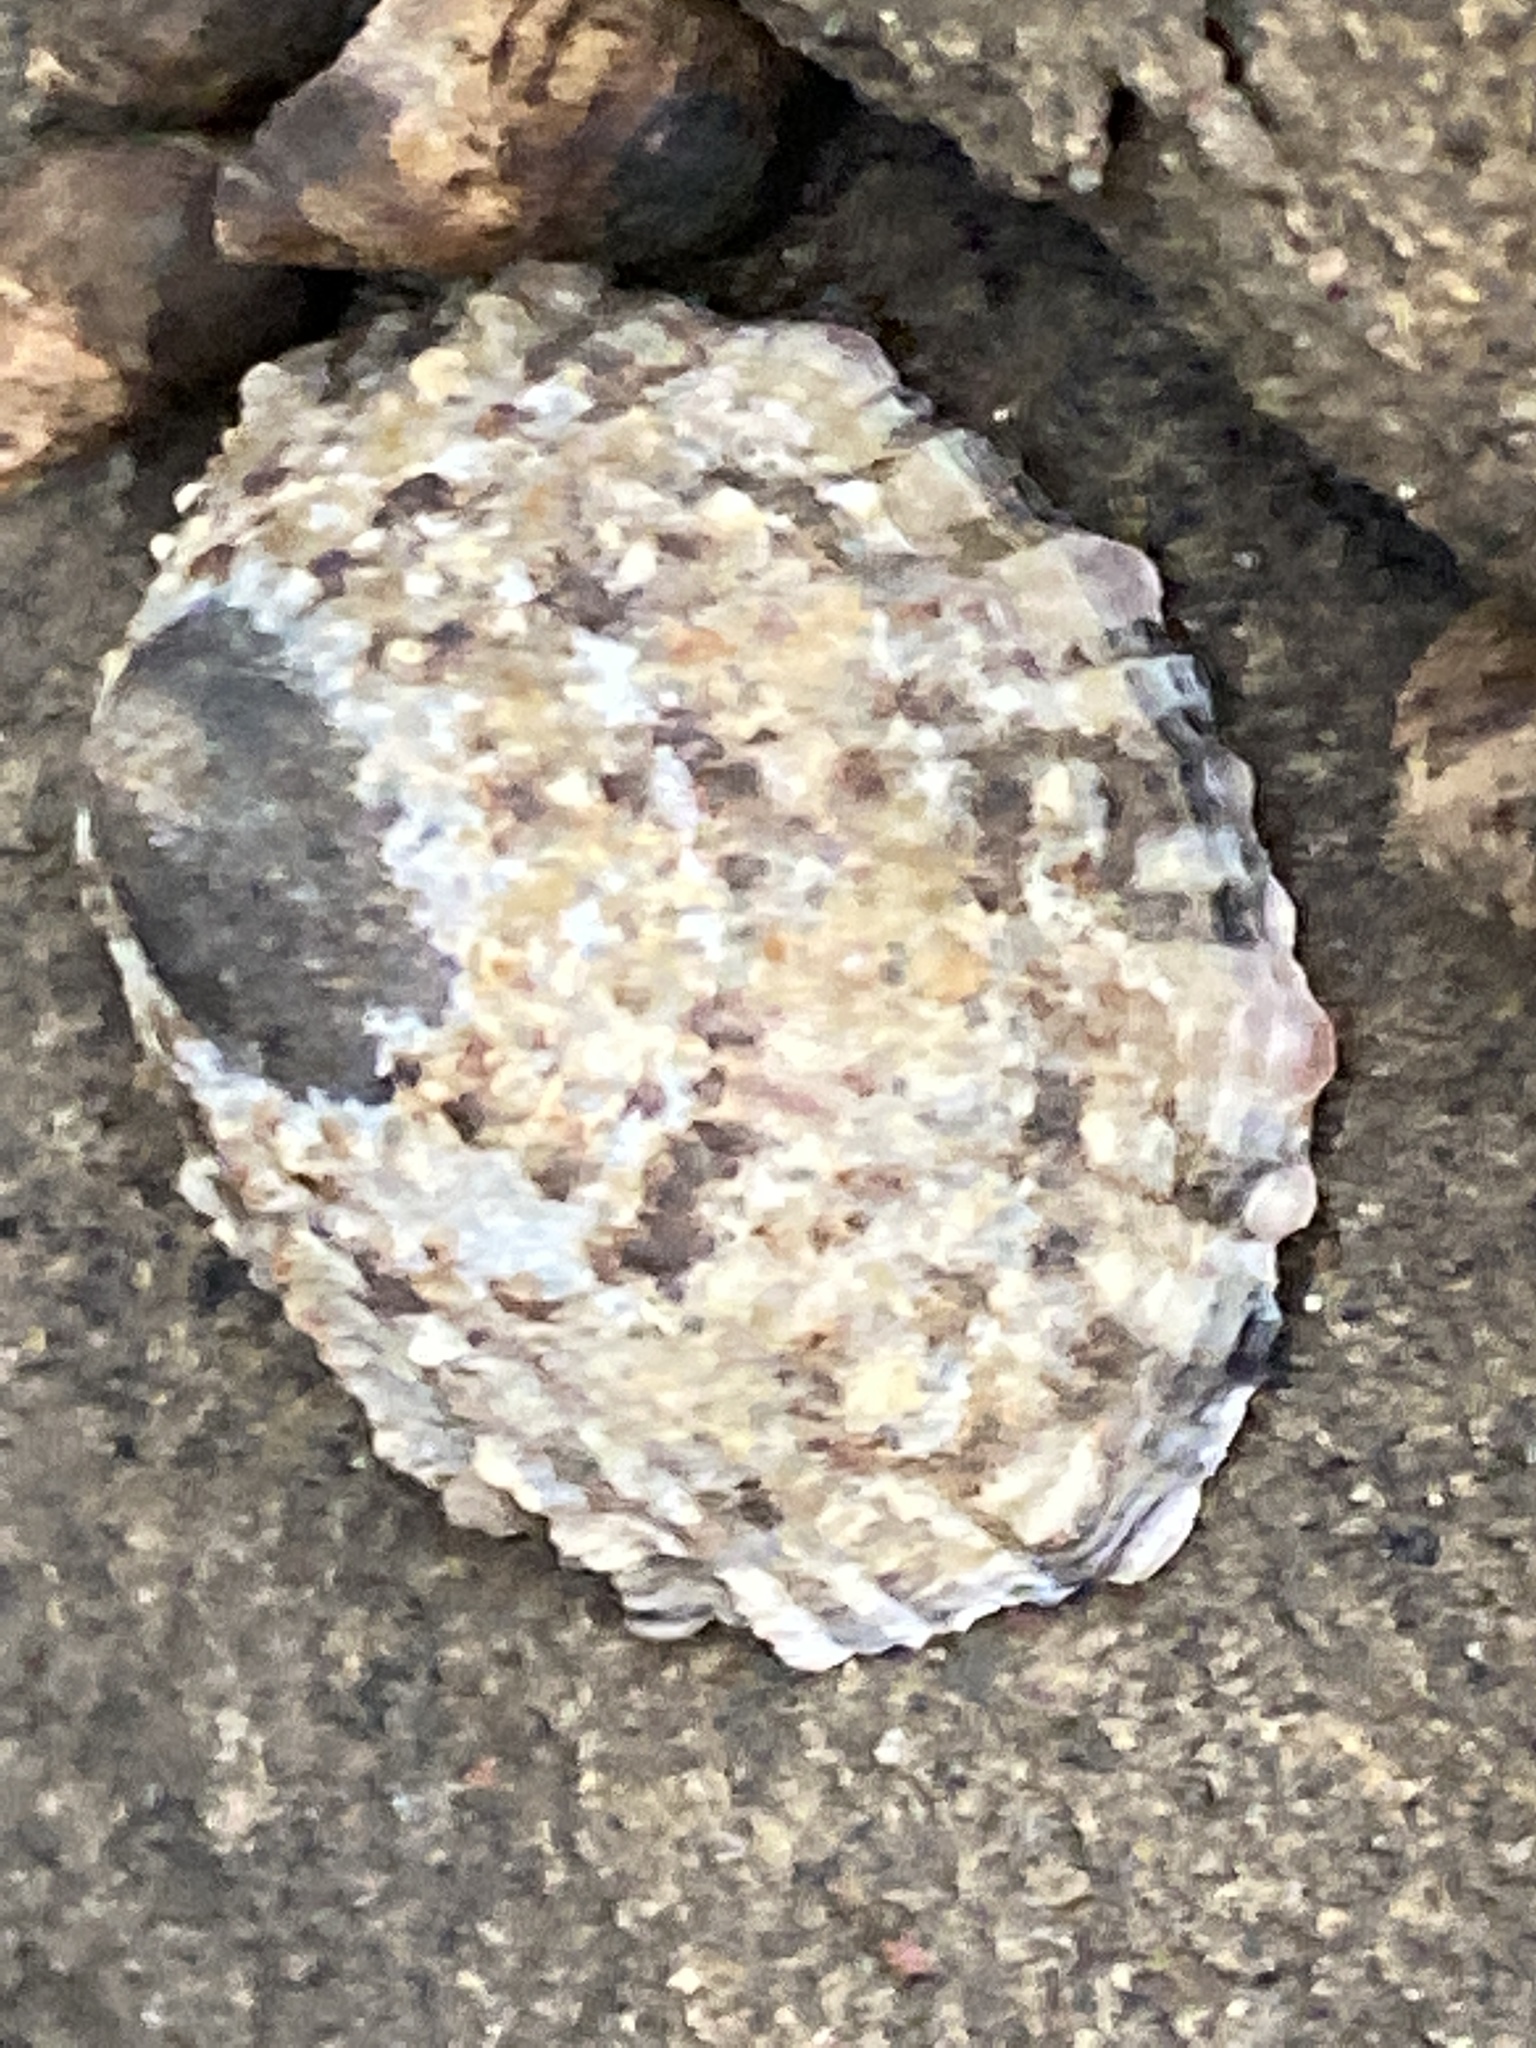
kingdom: Animalia
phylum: Mollusca
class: Gastropoda
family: Nacellidae
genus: Cellana
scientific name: Cellana ornata
